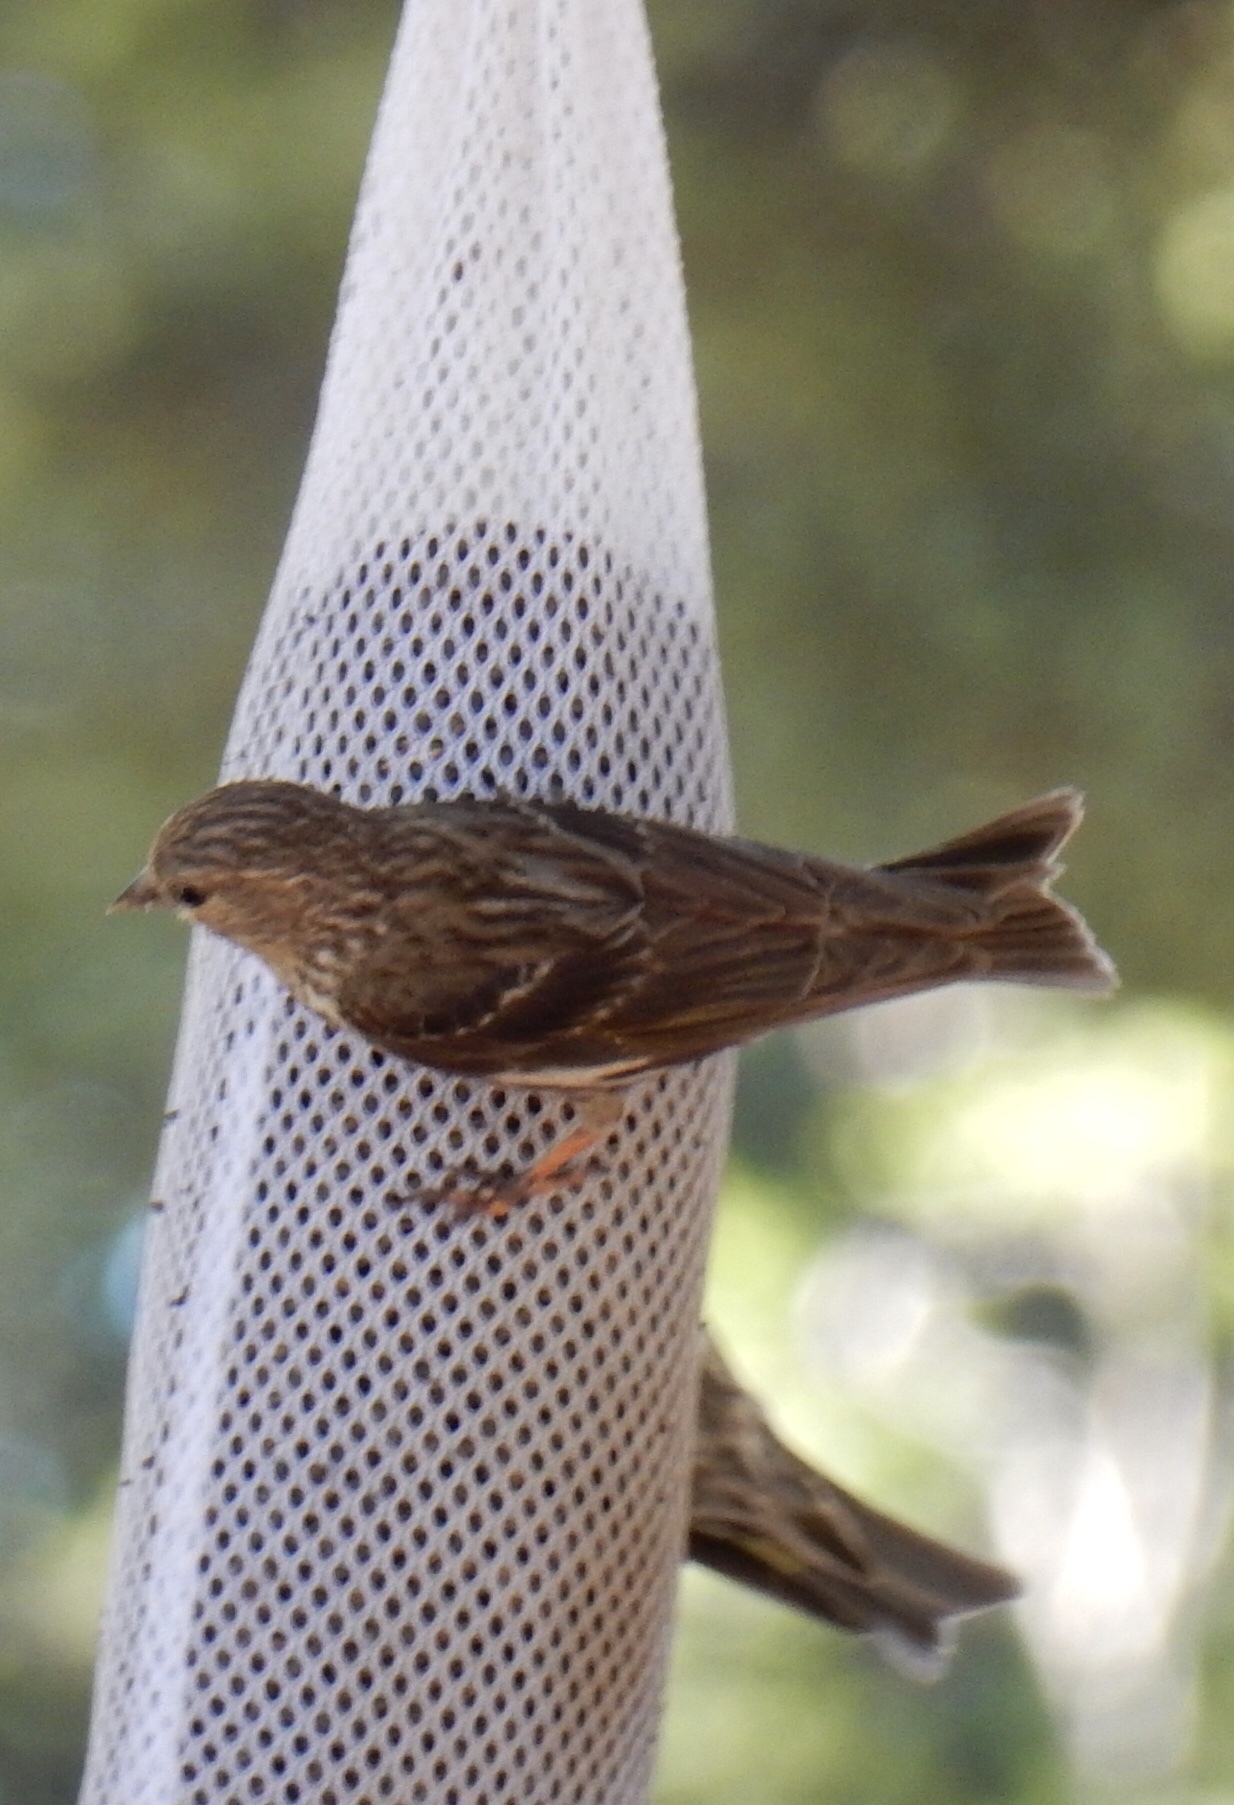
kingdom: Animalia
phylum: Chordata
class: Aves
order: Passeriformes
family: Fringillidae
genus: Spinus
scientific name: Spinus pinus
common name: Pine siskin
